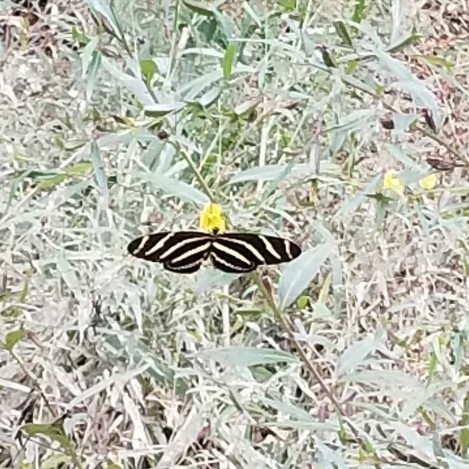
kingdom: Animalia
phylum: Arthropoda
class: Insecta
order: Lepidoptera
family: Nymphalidae
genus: Heliconius
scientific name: Heliconius charithonia
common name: Zebra long wing
